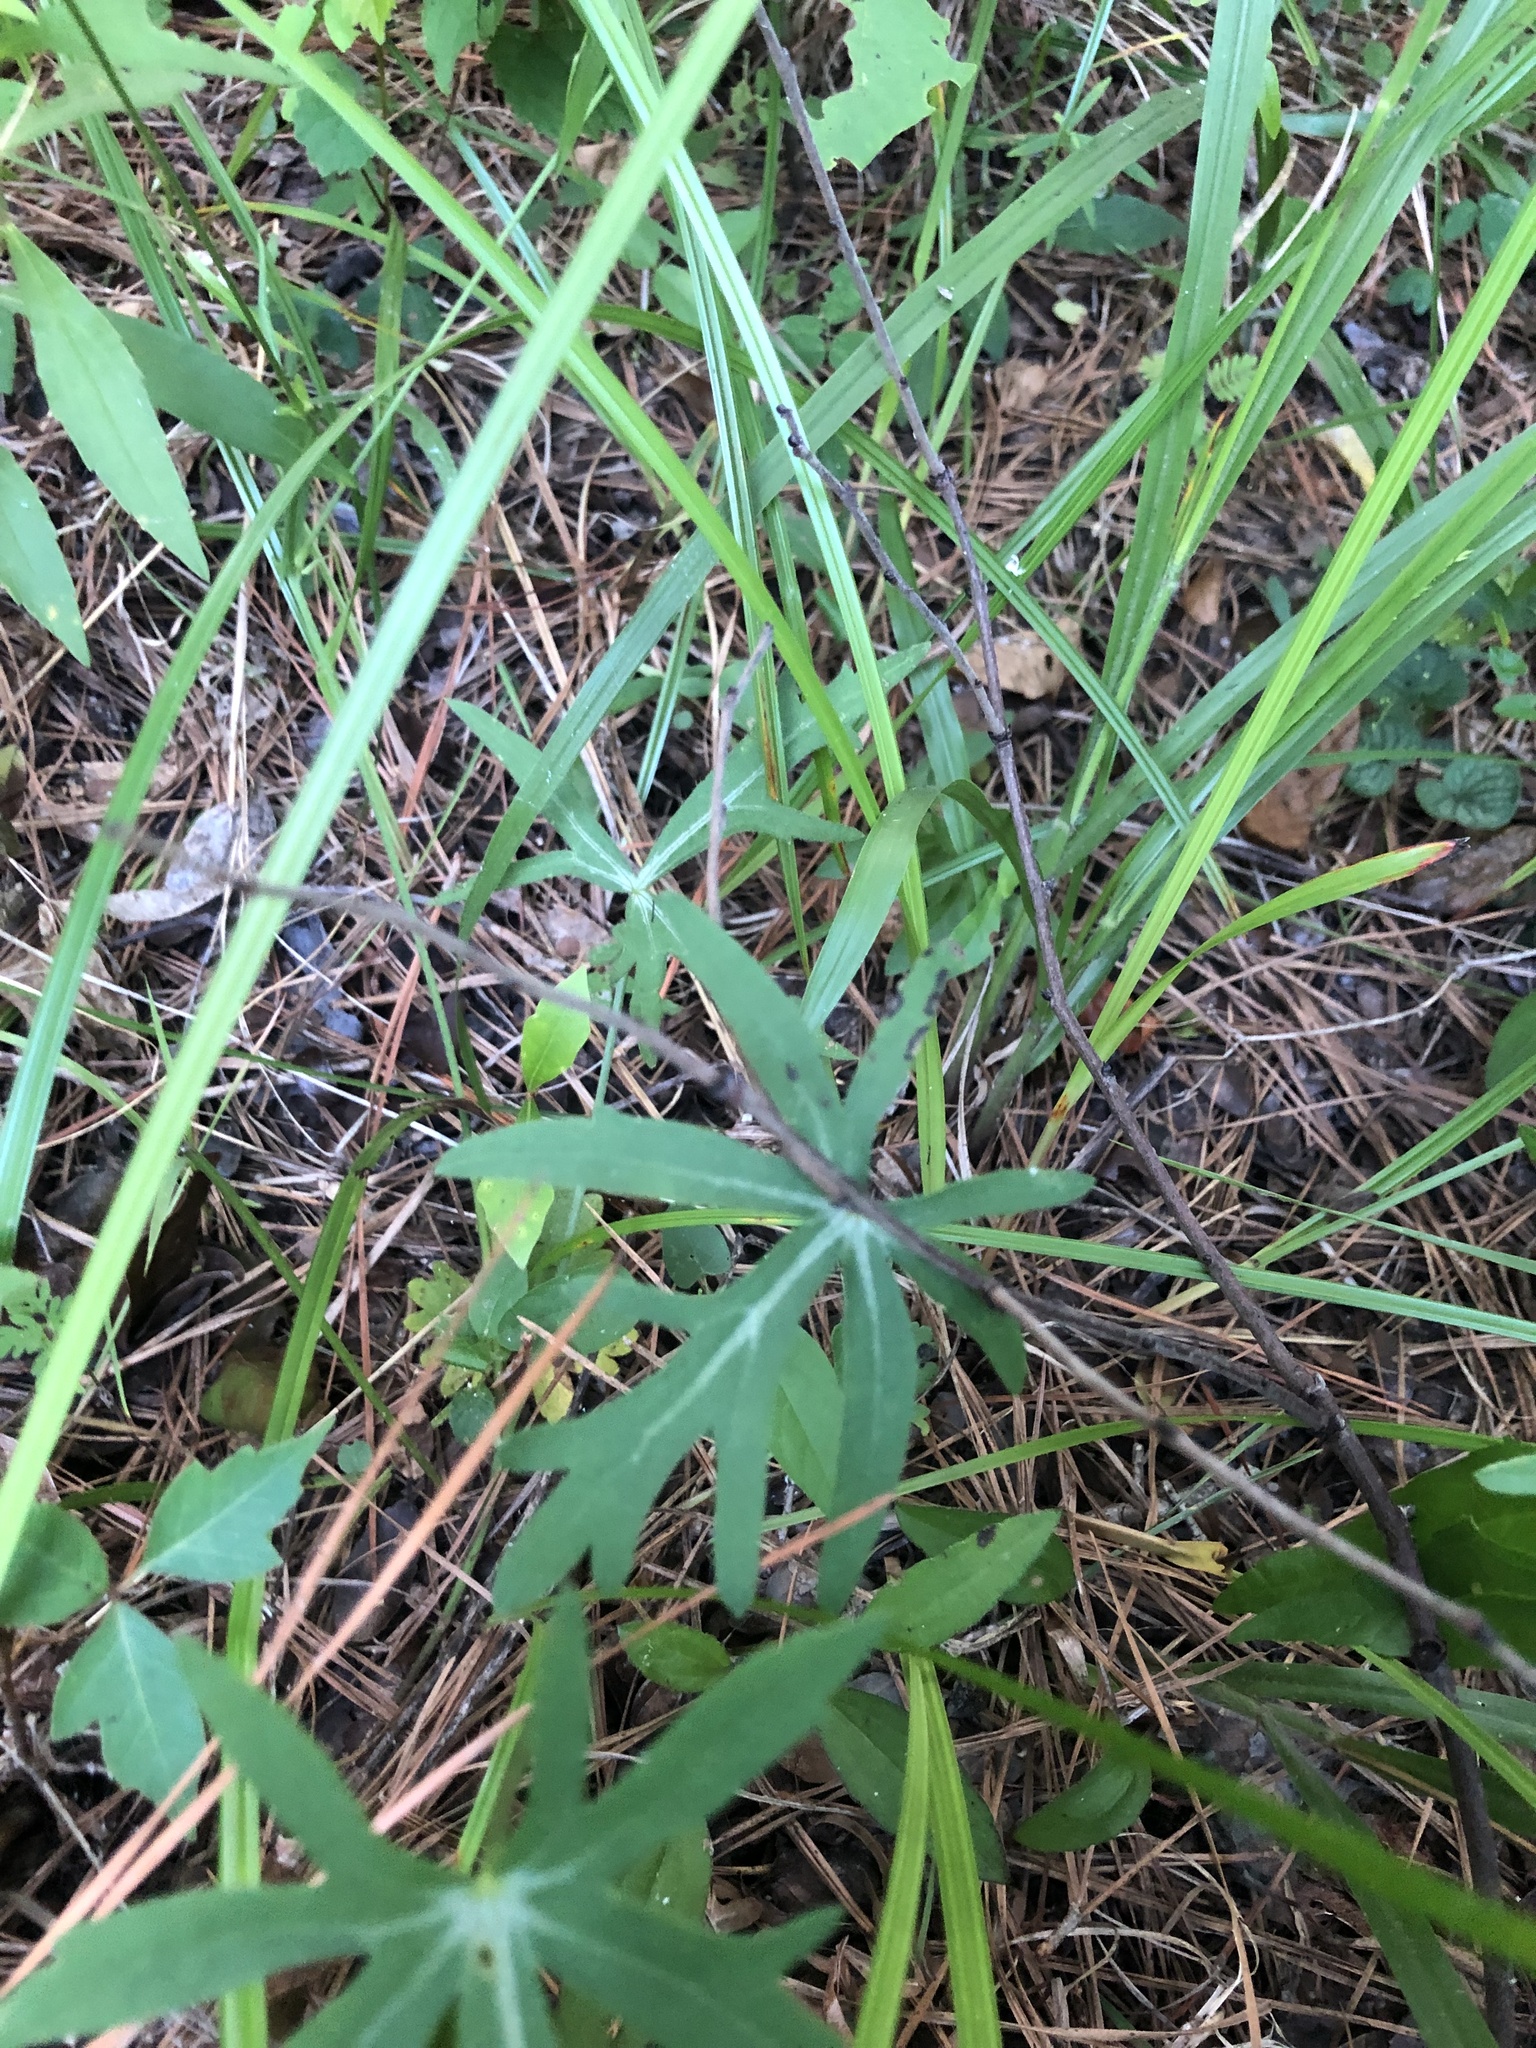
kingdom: Plantae
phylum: Tracheophyta
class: Magnoliopsida
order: Malvales
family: Malvaceae
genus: Callirhoe
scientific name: Callirhoe papaver
